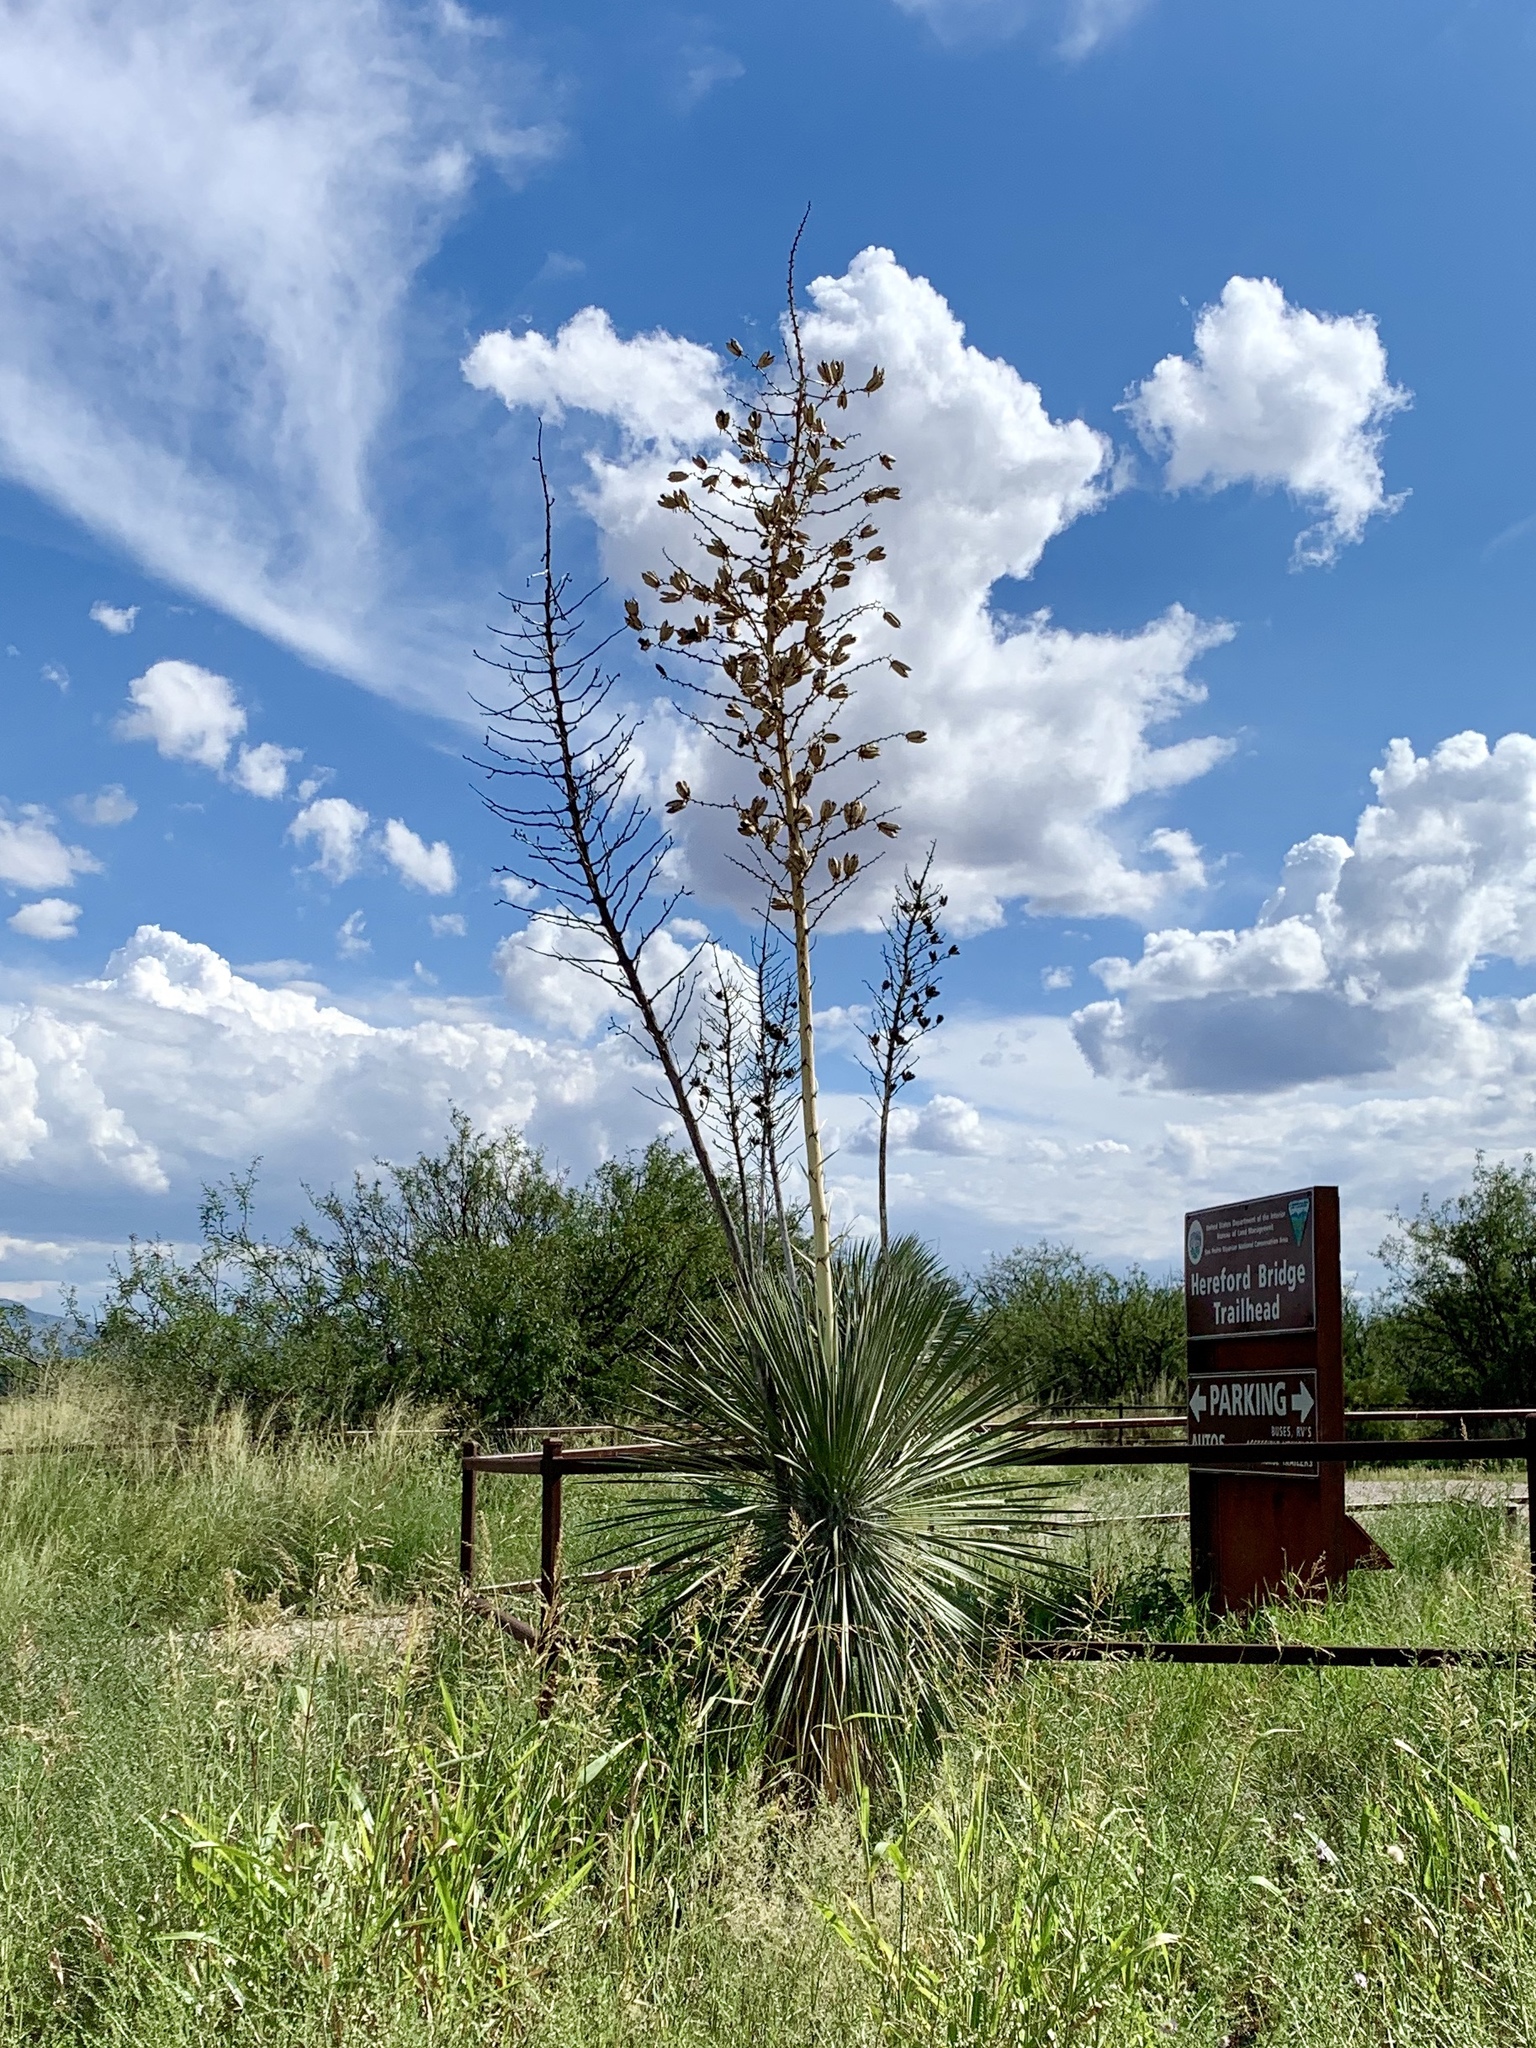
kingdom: Plantae
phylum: Tracheophyta
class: Liliopsida
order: Asparagales
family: Asparagaceae
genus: Yucca
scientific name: Yucca elata
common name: Palmella
